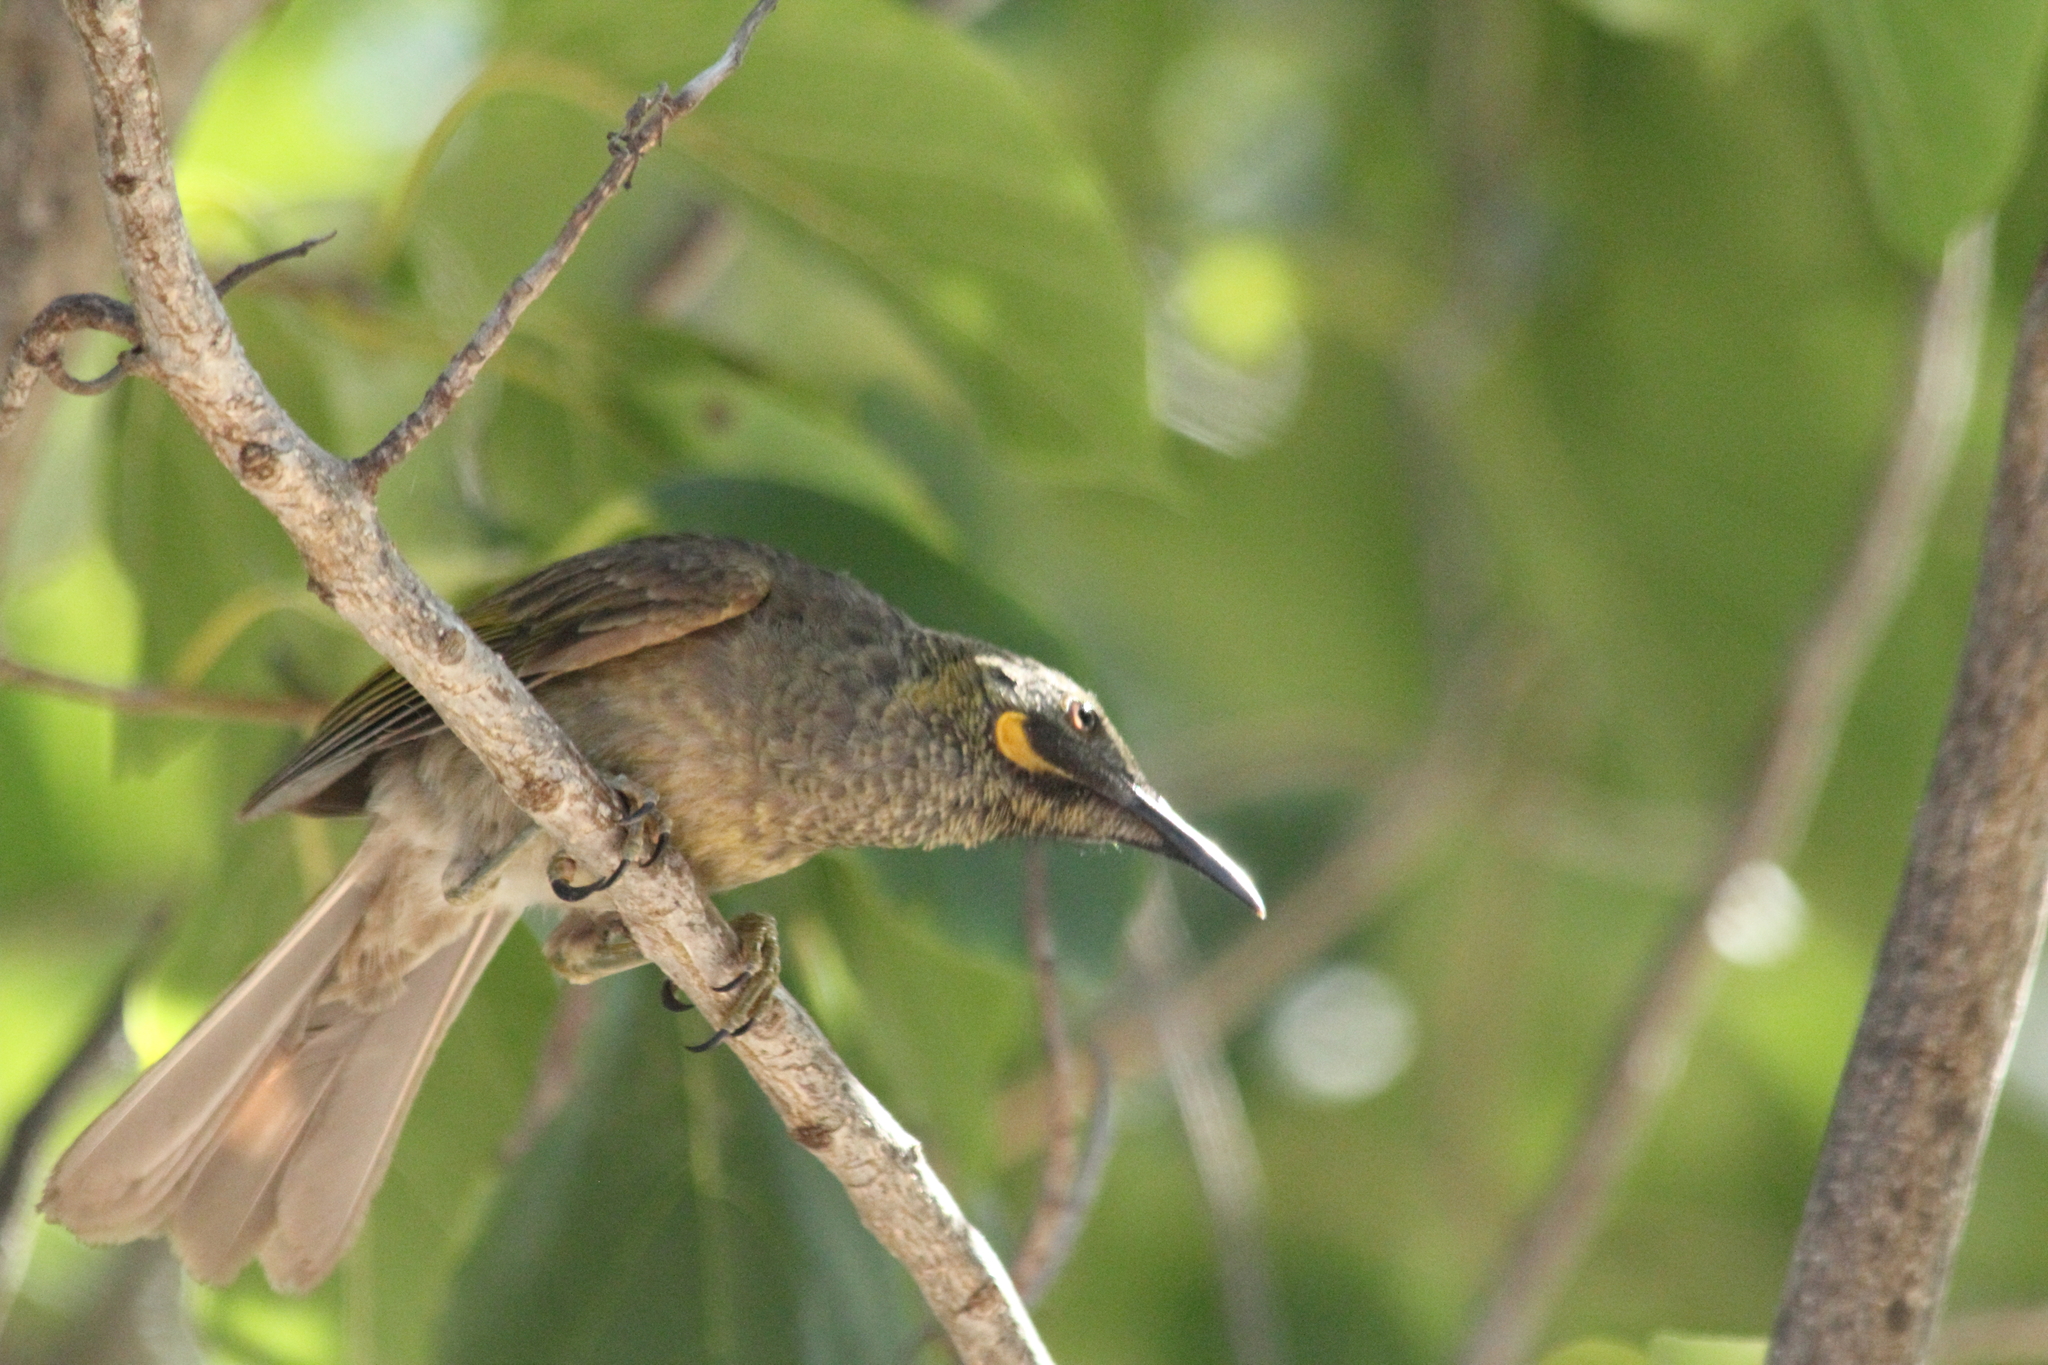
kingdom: Animalia
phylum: Chordata
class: Aves
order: Passeriformes
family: Meliphagidae
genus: Foulehaio
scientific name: Foulehaio procerior
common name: Kikau
